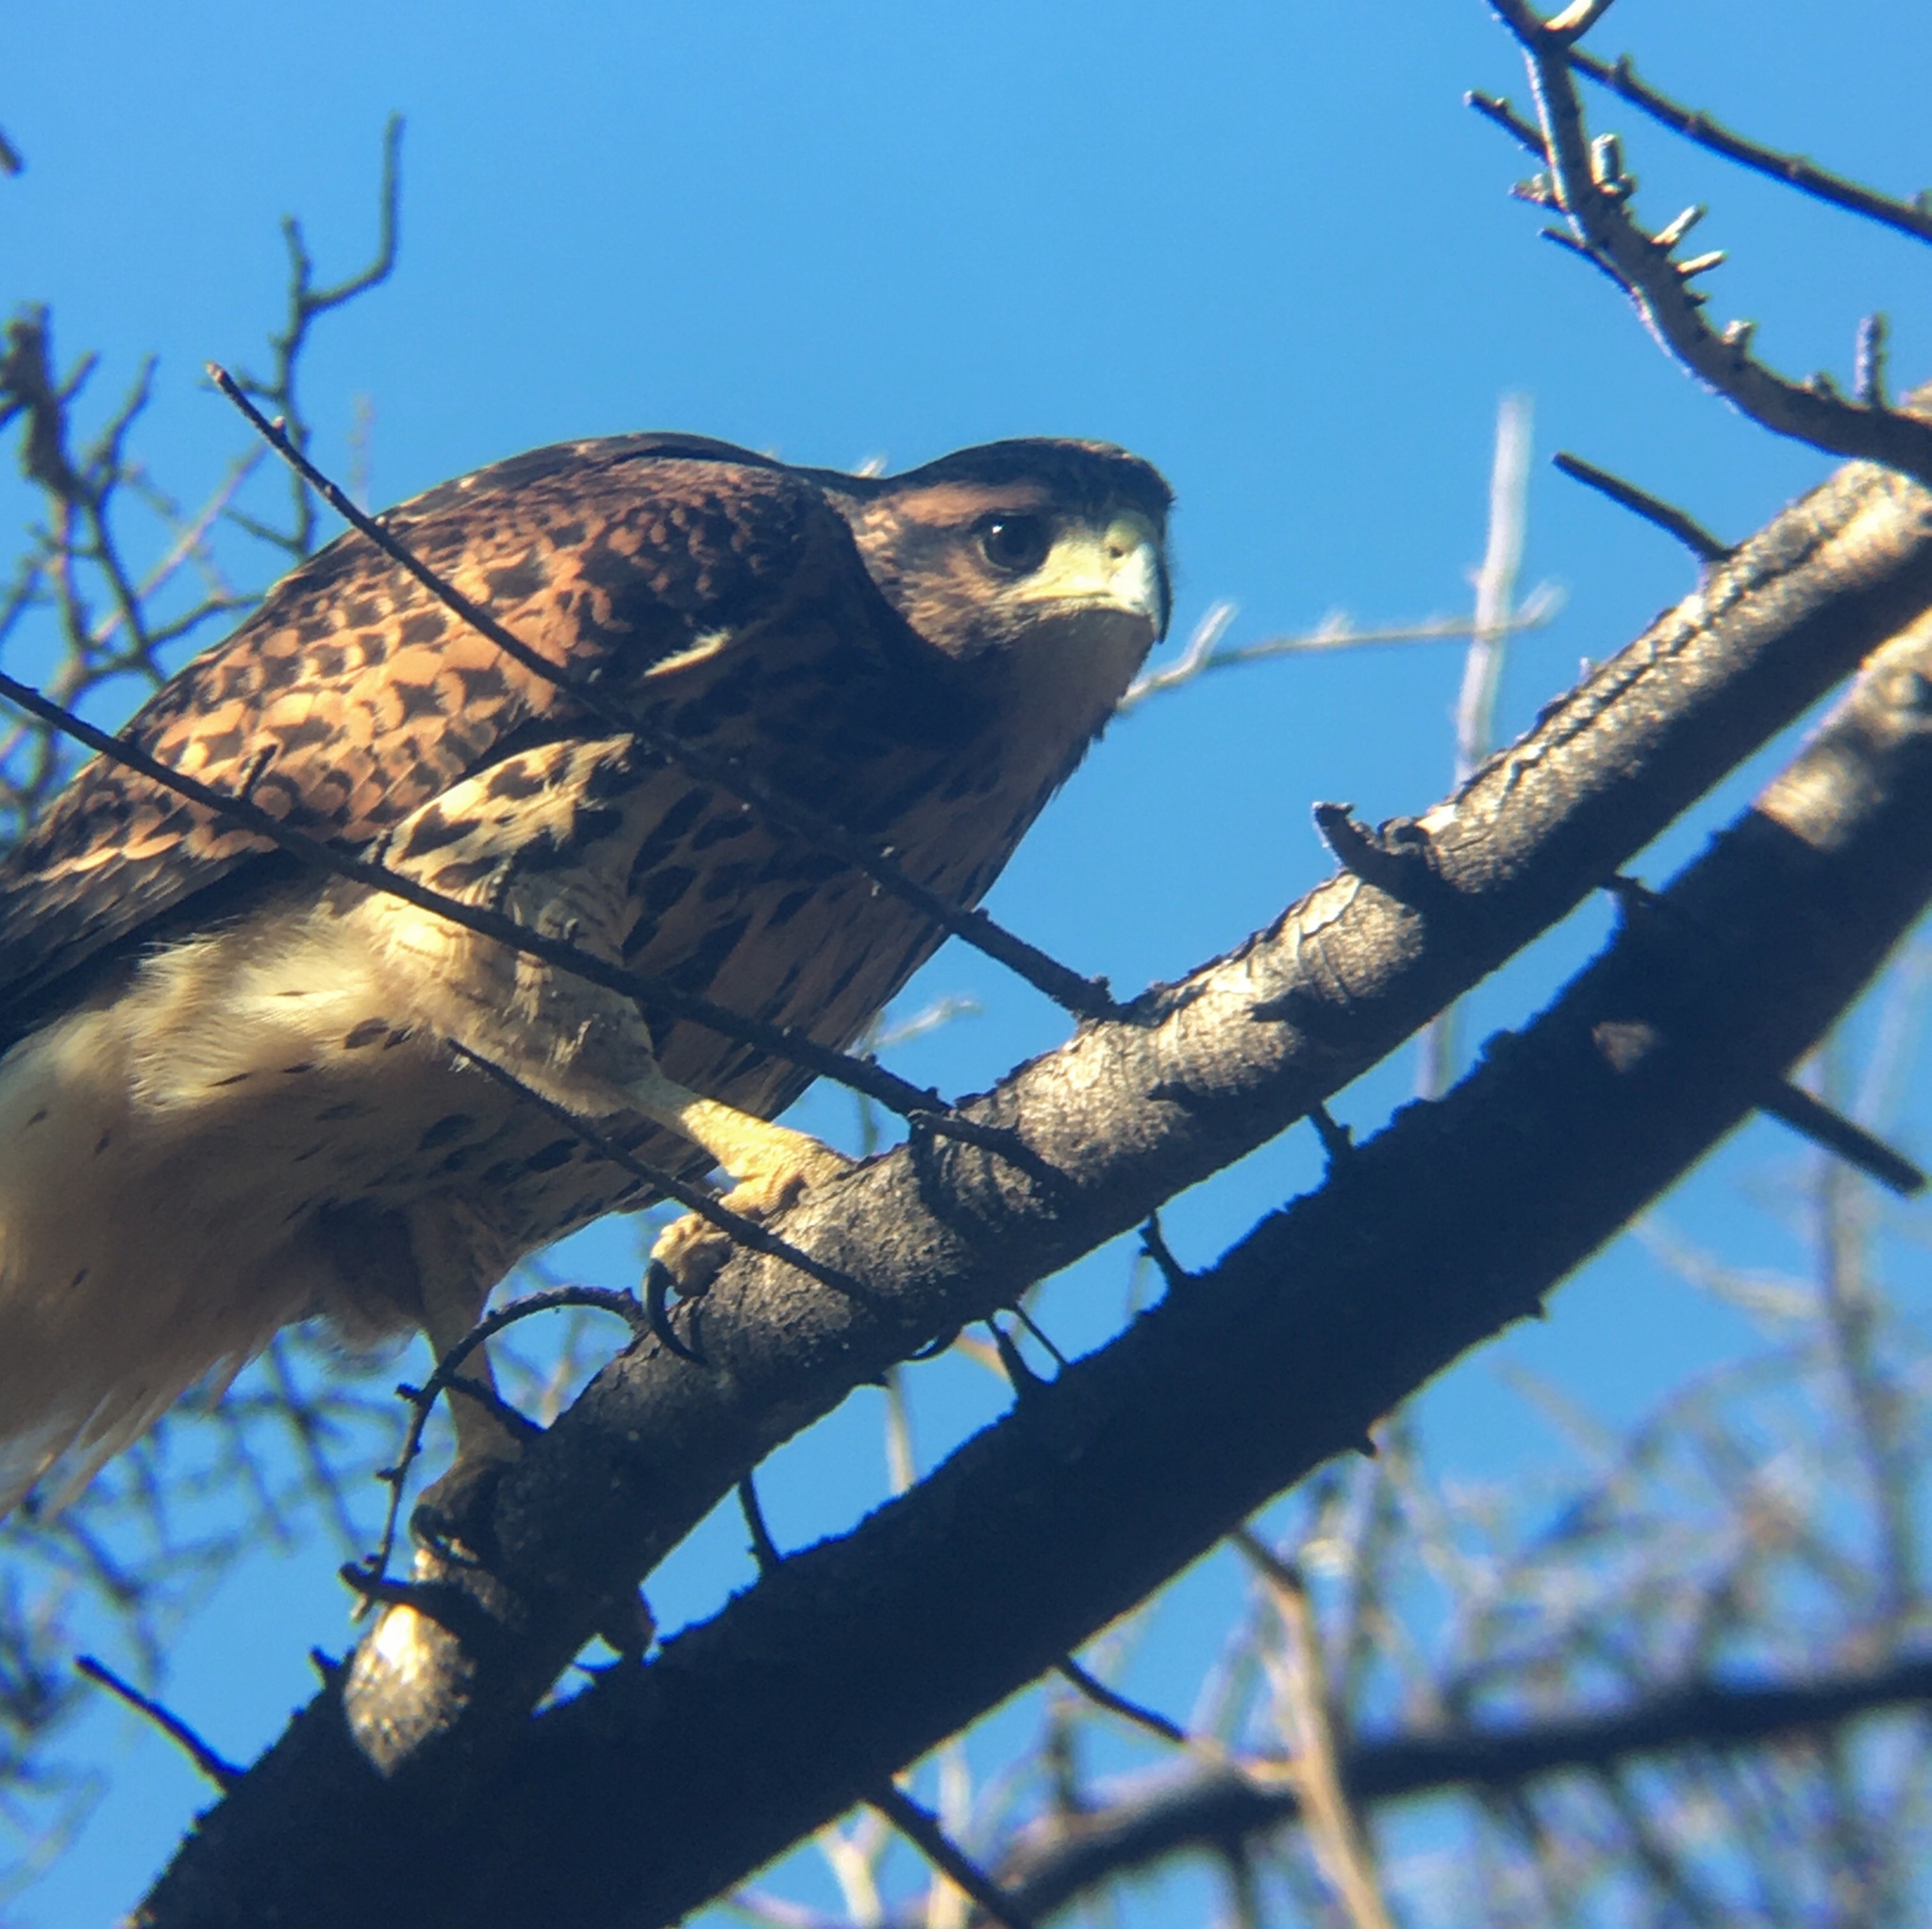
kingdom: Animalia
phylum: Chordata
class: Aves
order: Accipitriformes
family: Accipitridae
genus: Parabuteo
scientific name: Parabuteo unicinctus
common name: Harris's hawk
